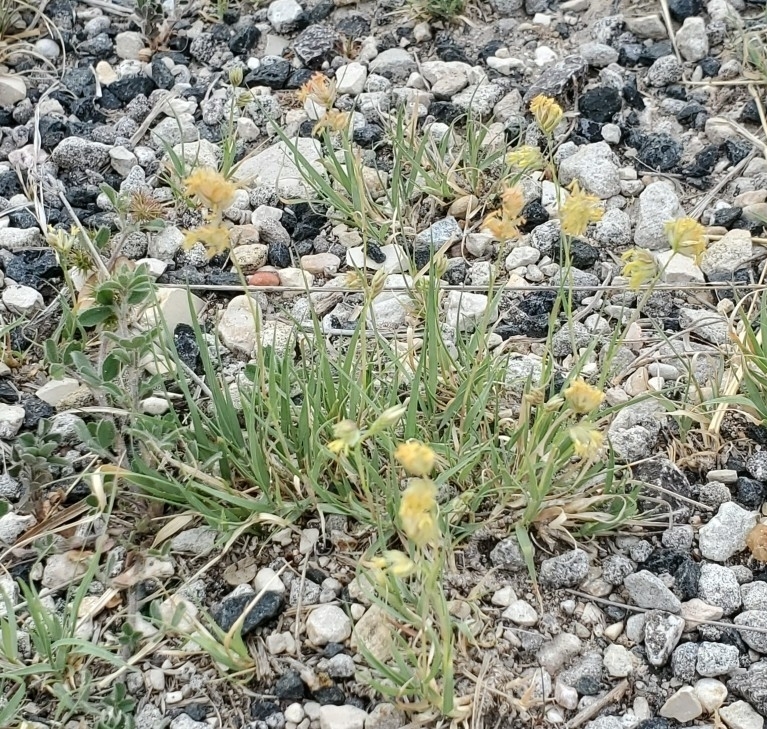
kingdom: Plantae
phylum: Tracheophyta
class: Liliopsida
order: Poales
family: Poaceae
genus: Bouteloua
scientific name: Bouteloua dactyloides
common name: Buffalo grass
